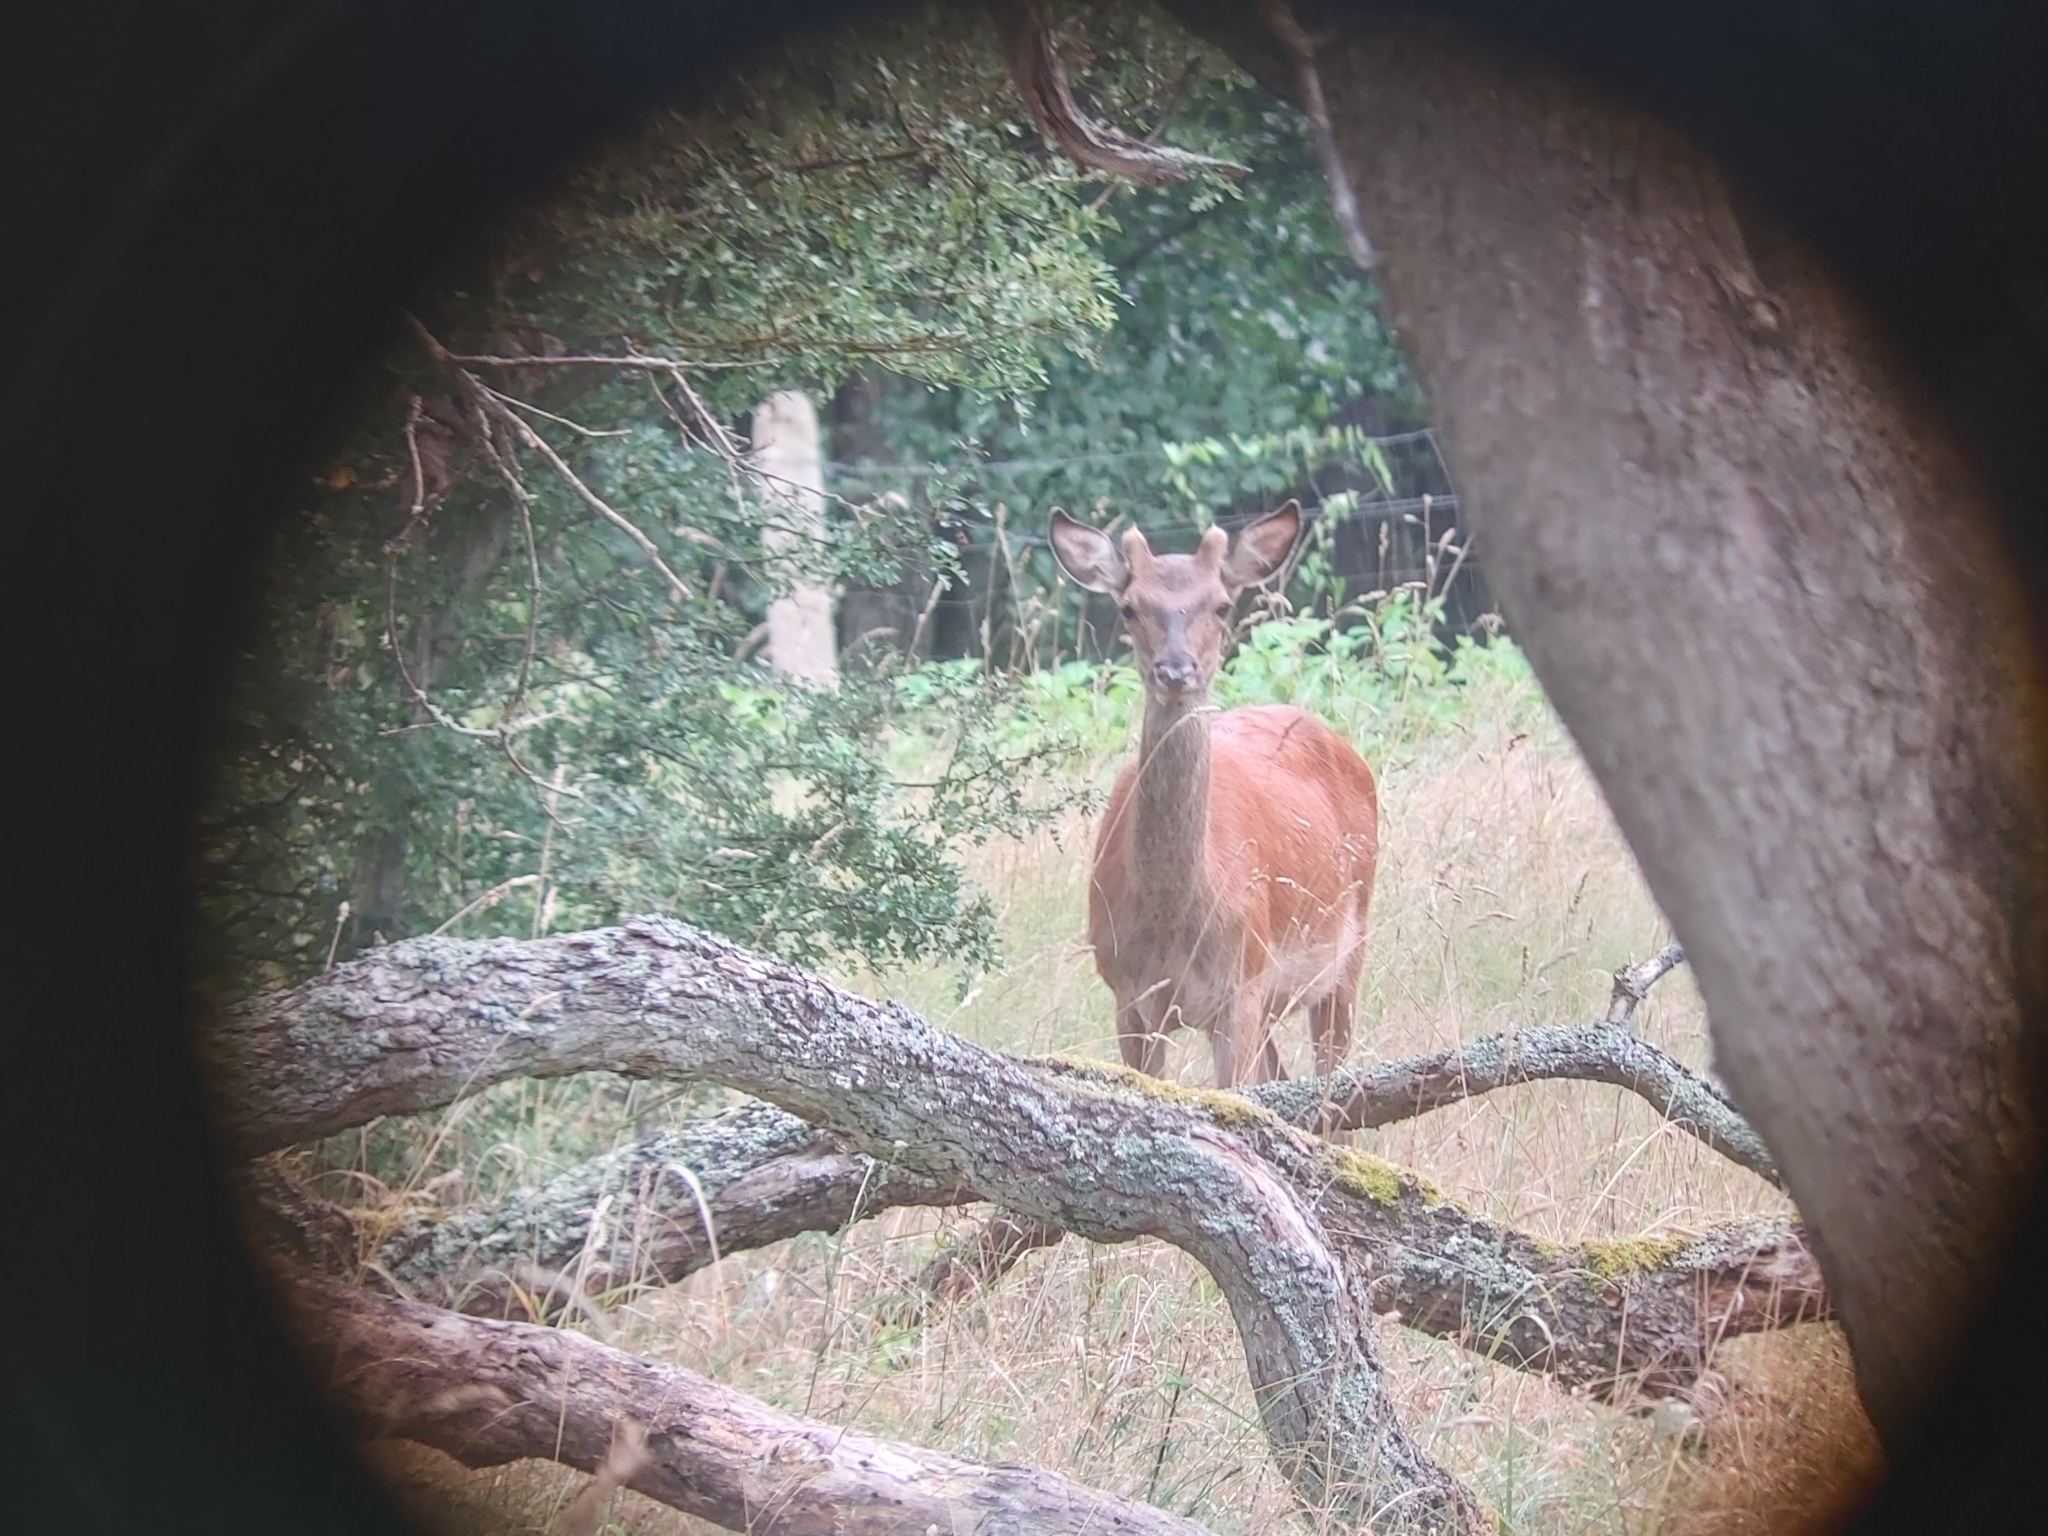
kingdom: Animalia
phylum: Chordata
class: Mammalia
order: Artiodactyla
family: Cervidae
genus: Cervus
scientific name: Cervus elaphus
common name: Red deer
